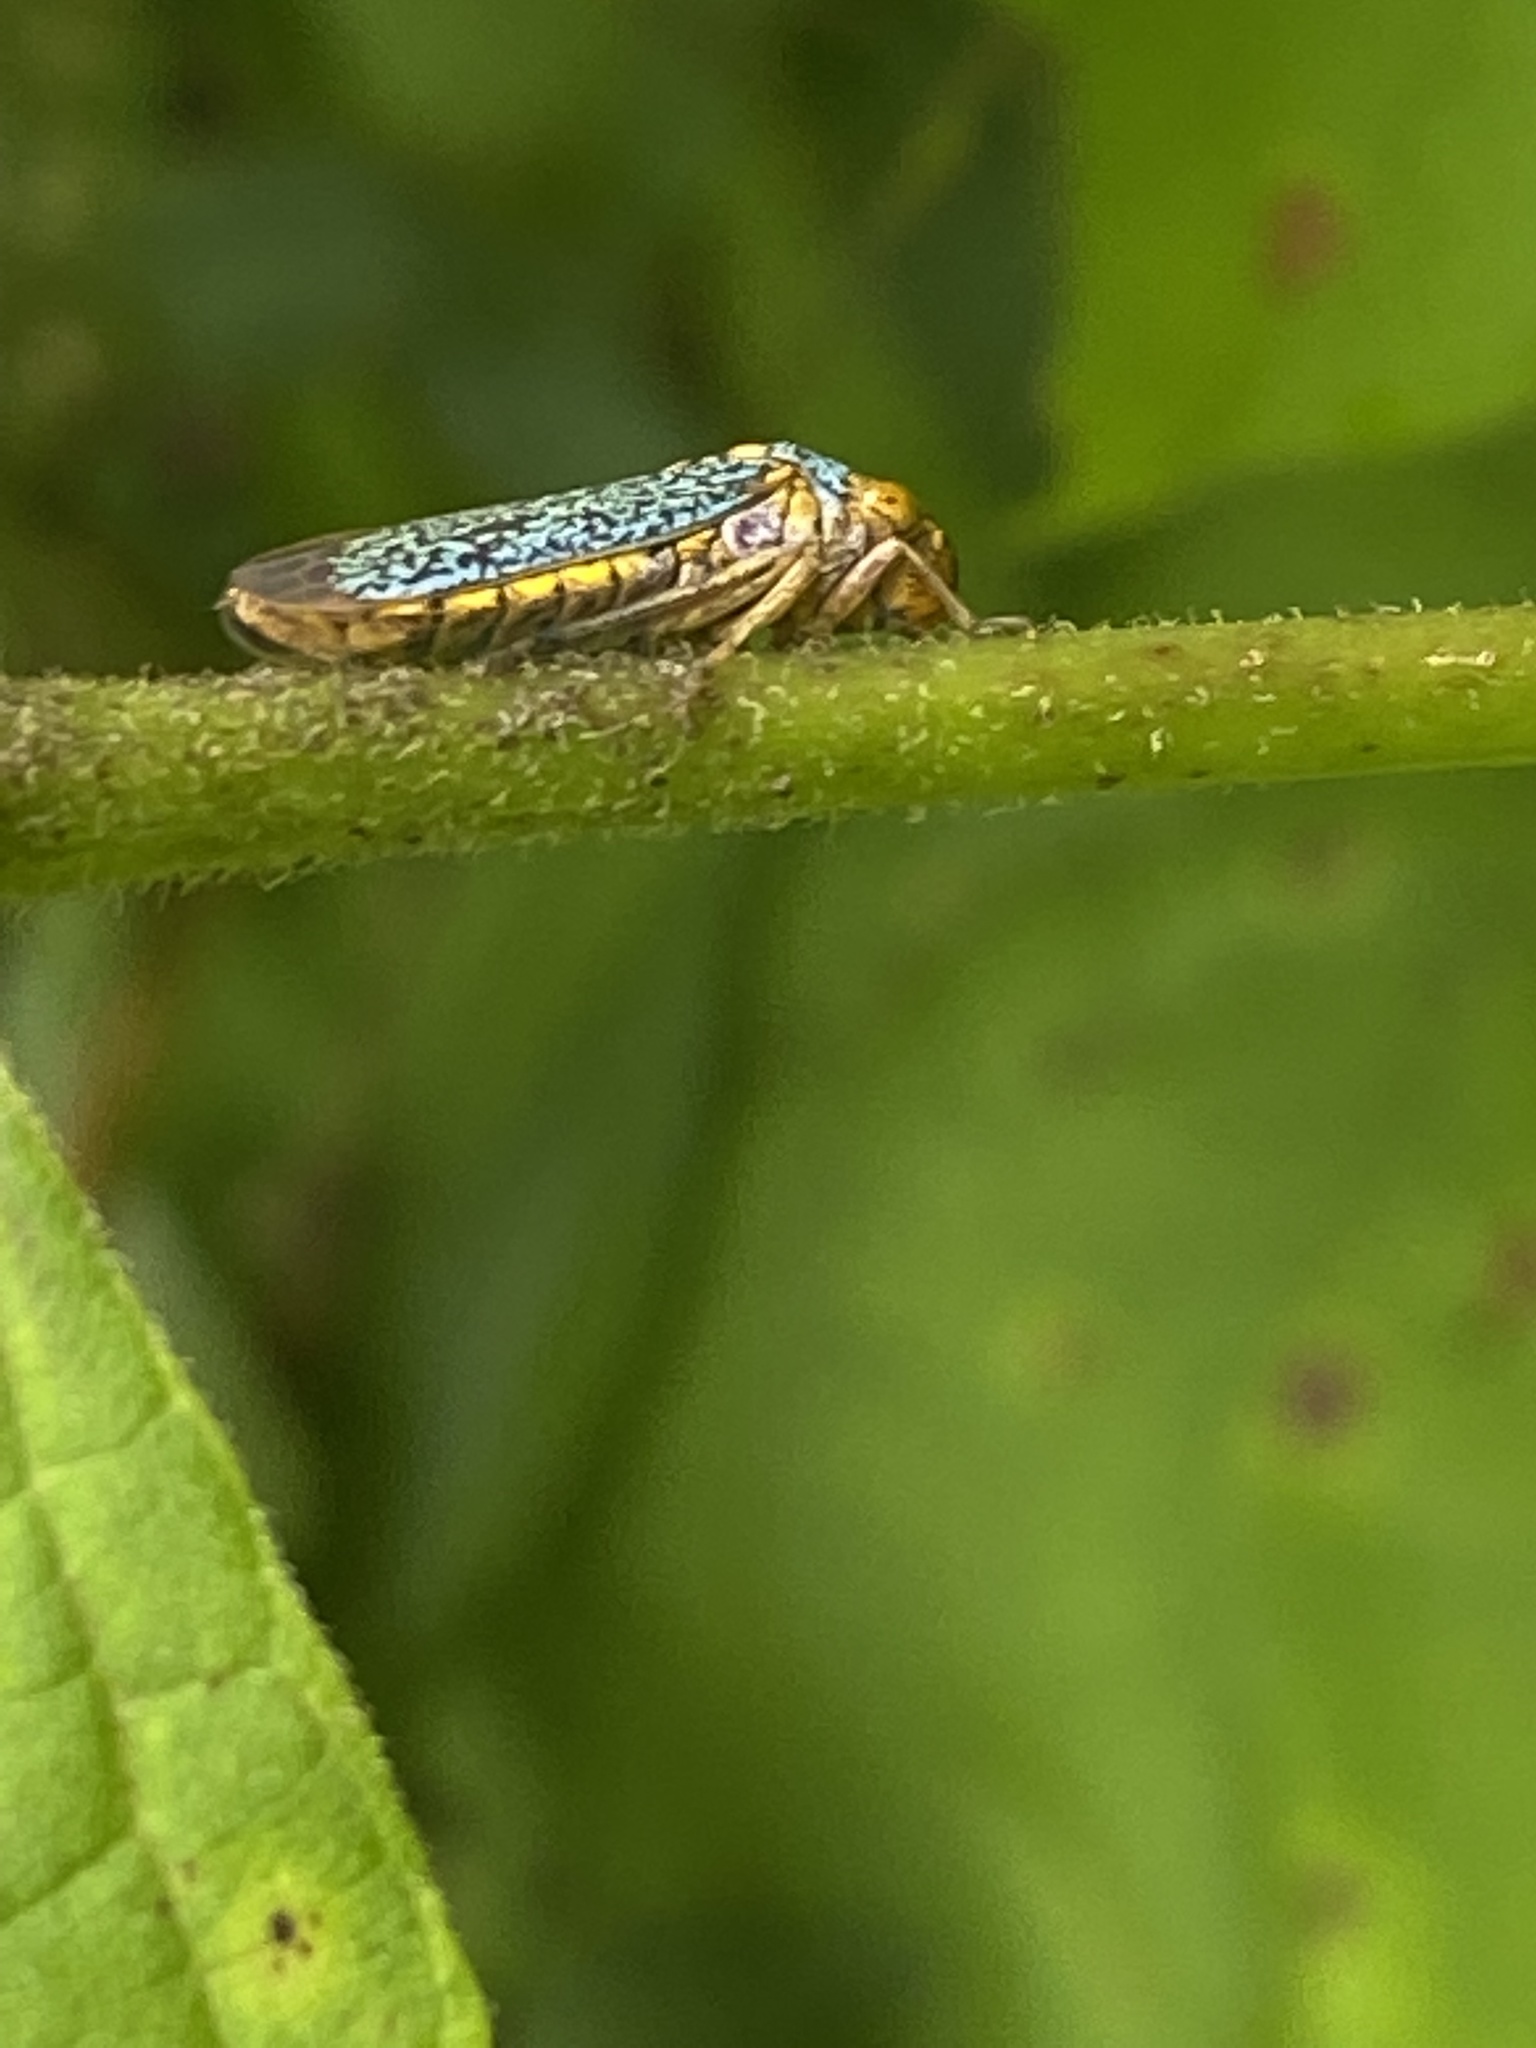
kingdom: Animalia
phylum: Arthropoda
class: Insecta
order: Hemiptera
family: Cicadellidae
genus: Oncometopia
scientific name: Oncometopia orbona
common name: Broad-headed sharpshooter
